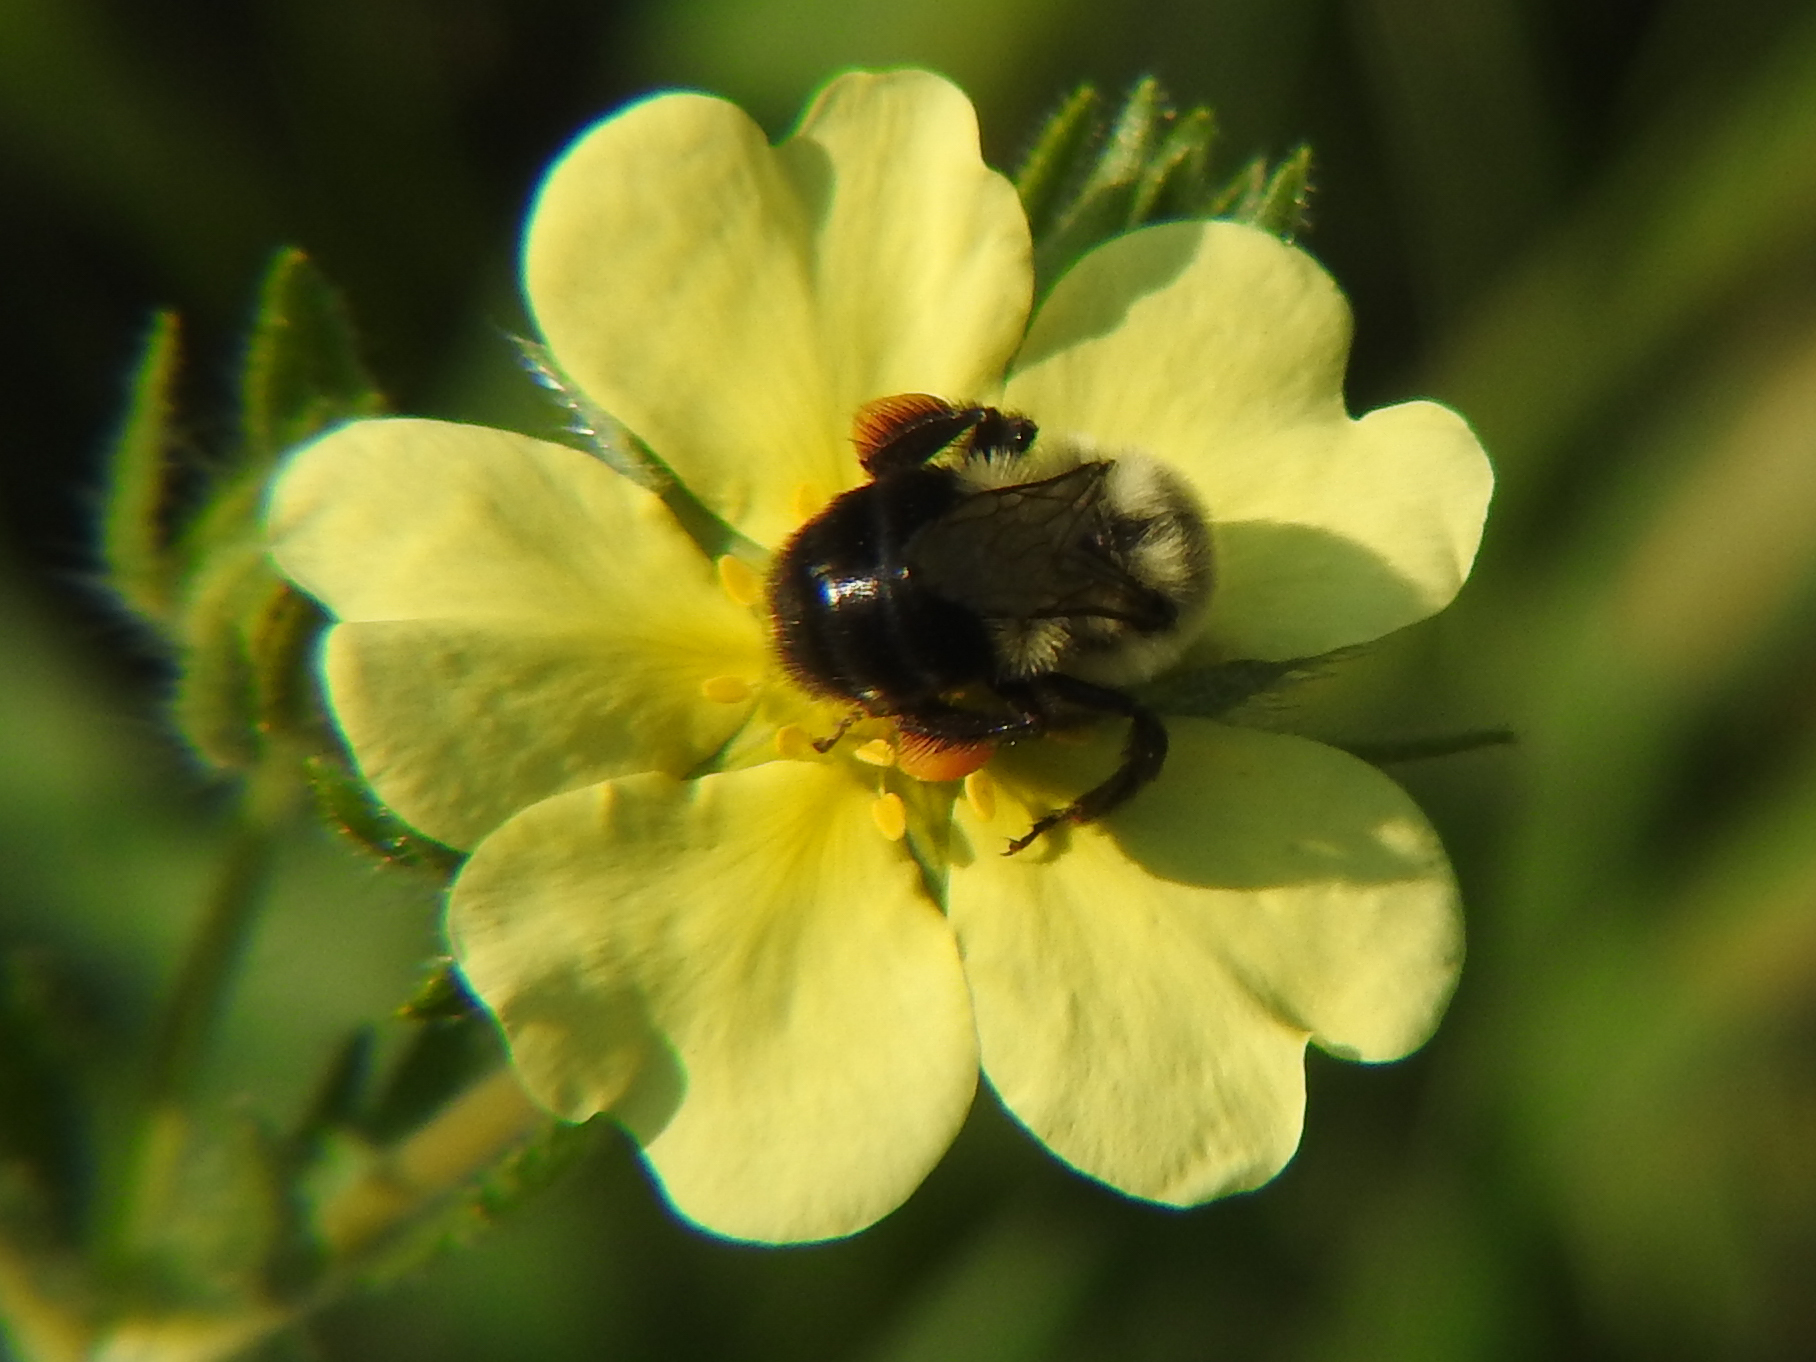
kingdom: Animalia
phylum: Arthropoda
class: Insecta
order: Hymenoptera
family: Apidae
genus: Bombus
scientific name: Bombus impatiens
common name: Common eastern bumble bee
